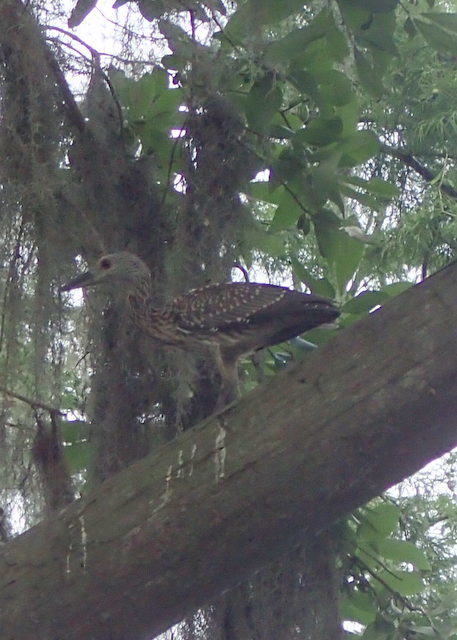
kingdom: Animalia
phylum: Chordata
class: Aves
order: Pelecaniformes
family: Ardeidae
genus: Nyctanassa
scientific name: Nyctanassa violacea
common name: Yellow-crowned night heron
